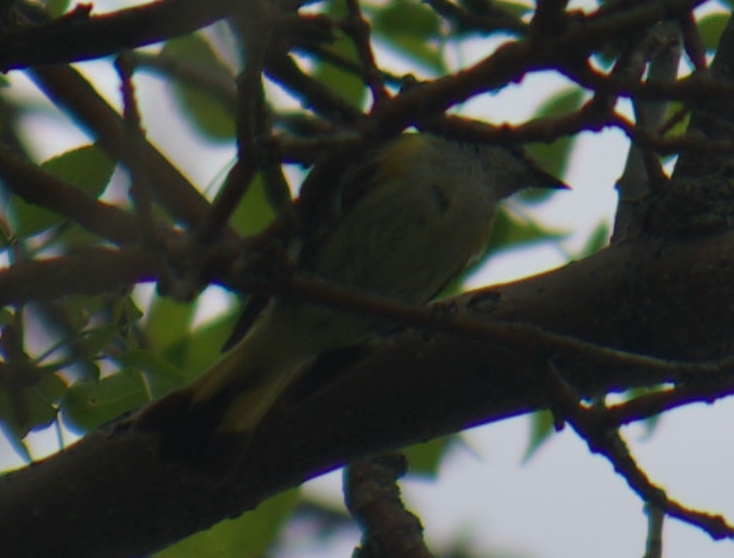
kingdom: Animalia
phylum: Chordata
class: Aves
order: Passeriformes
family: Parulidae
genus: Setophaga
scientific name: Setophaga ruticilla
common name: American redstart
